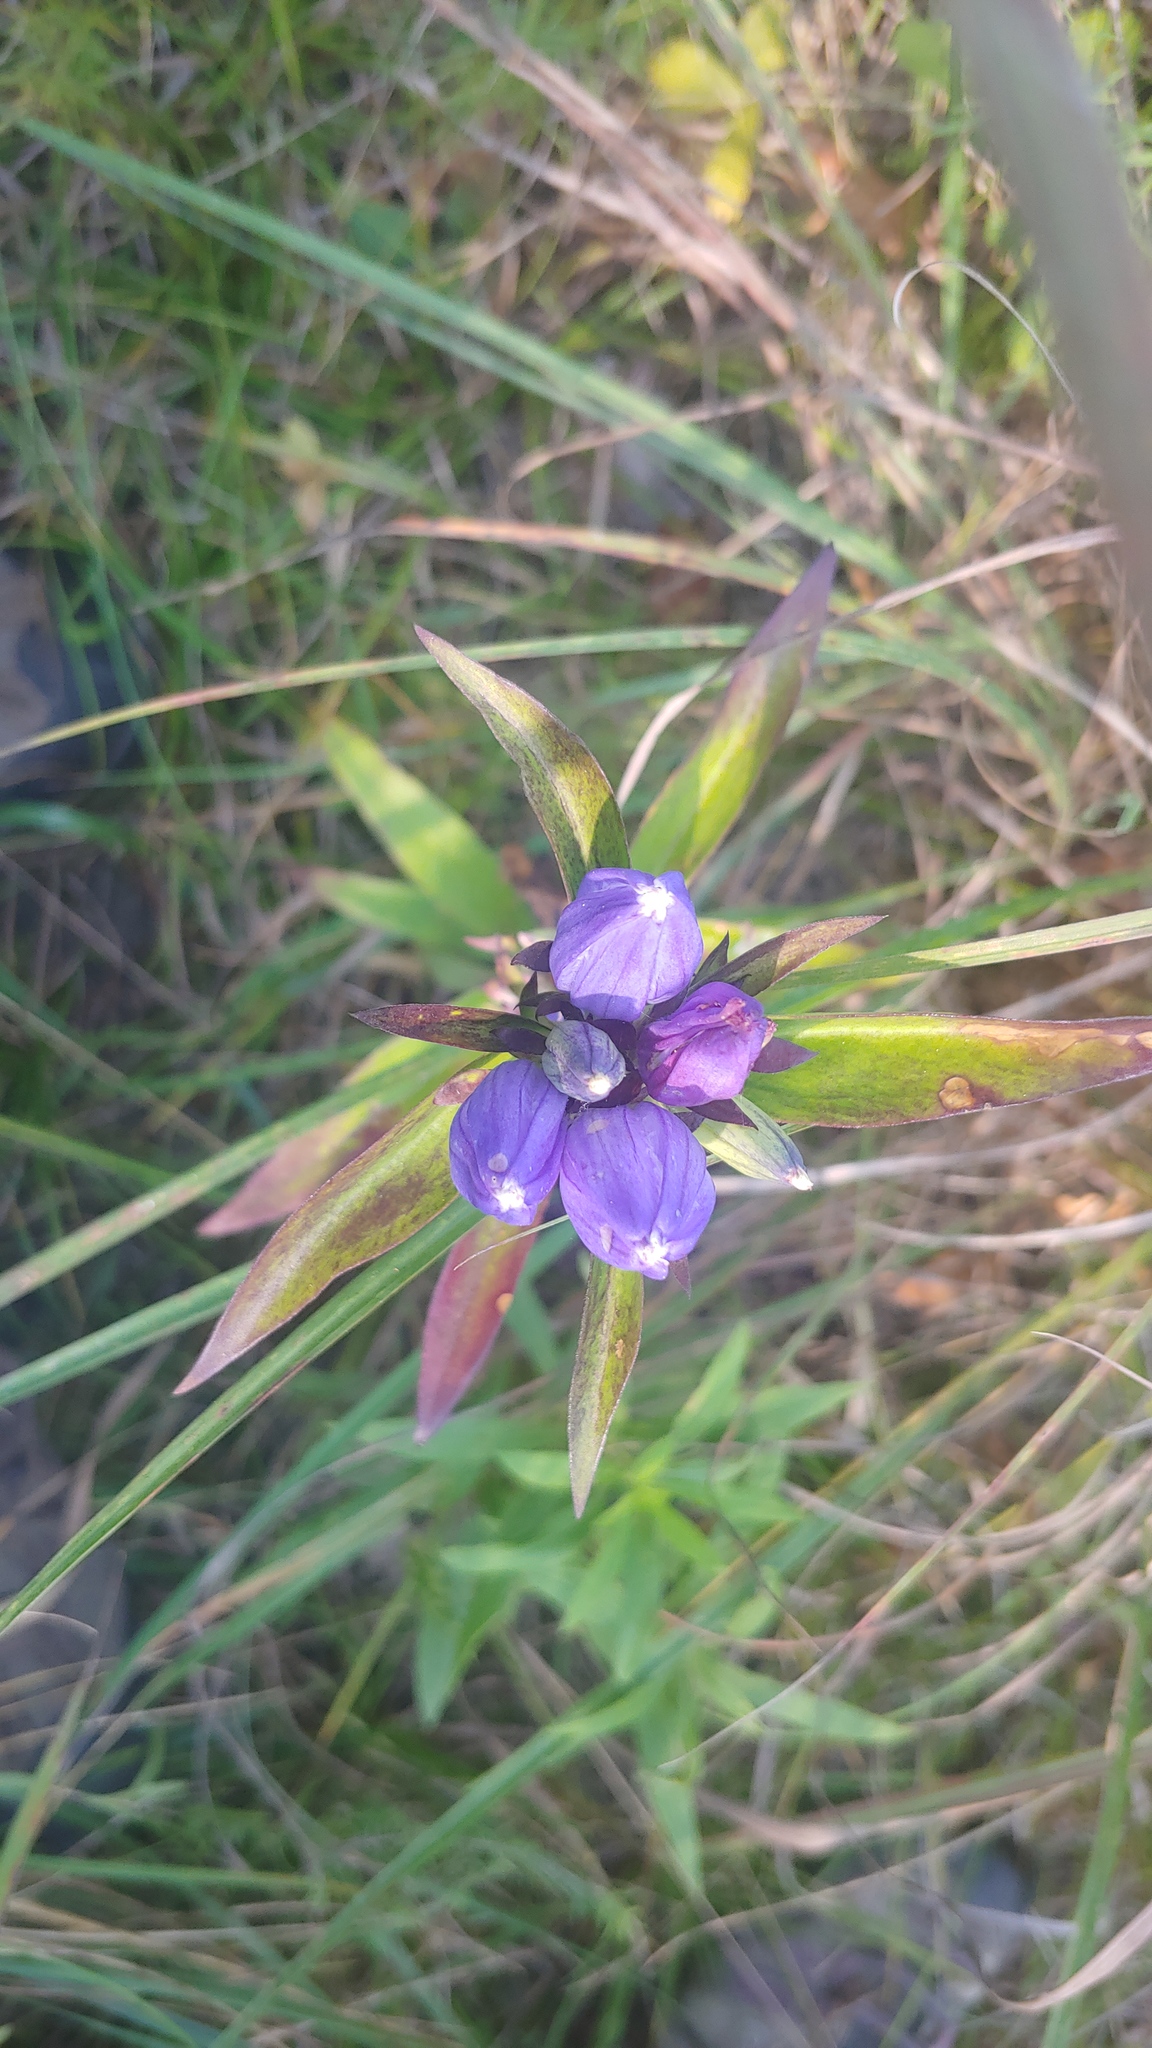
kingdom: Plantae
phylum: Tracheophyta
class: Magnoliopsida
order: Gentianales
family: Gentianaceae
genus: Gentiana
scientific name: Gentiana andrewsii
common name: Bottle gentian
